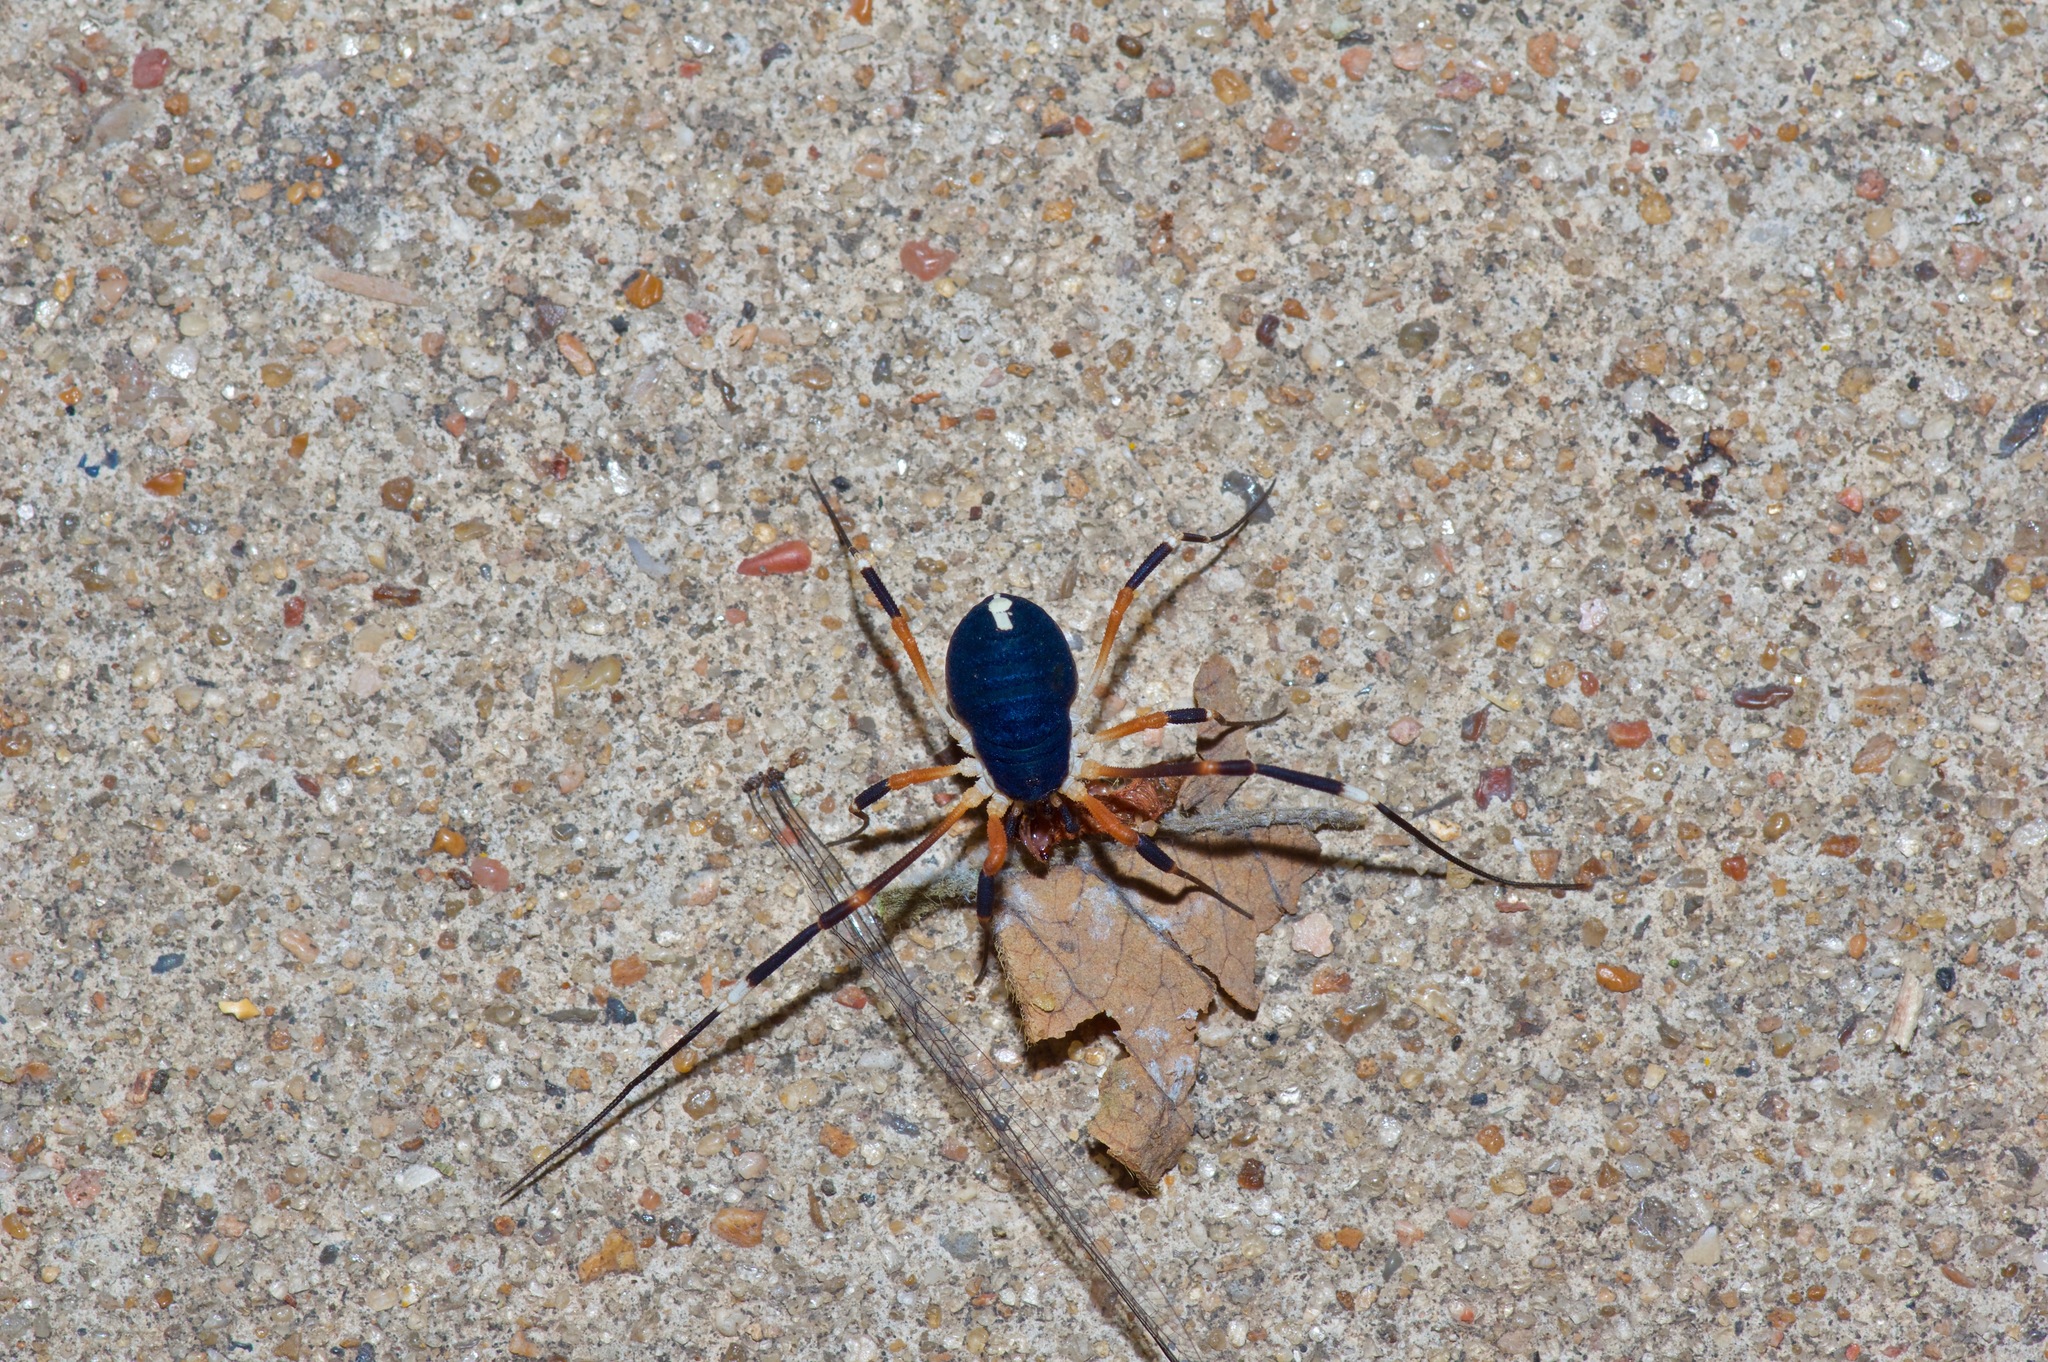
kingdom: Animalia
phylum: Arthropoda
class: Arachnida
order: Opiliones
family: Globipedidae
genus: Dalquestia
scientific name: Dalquestia formosa
